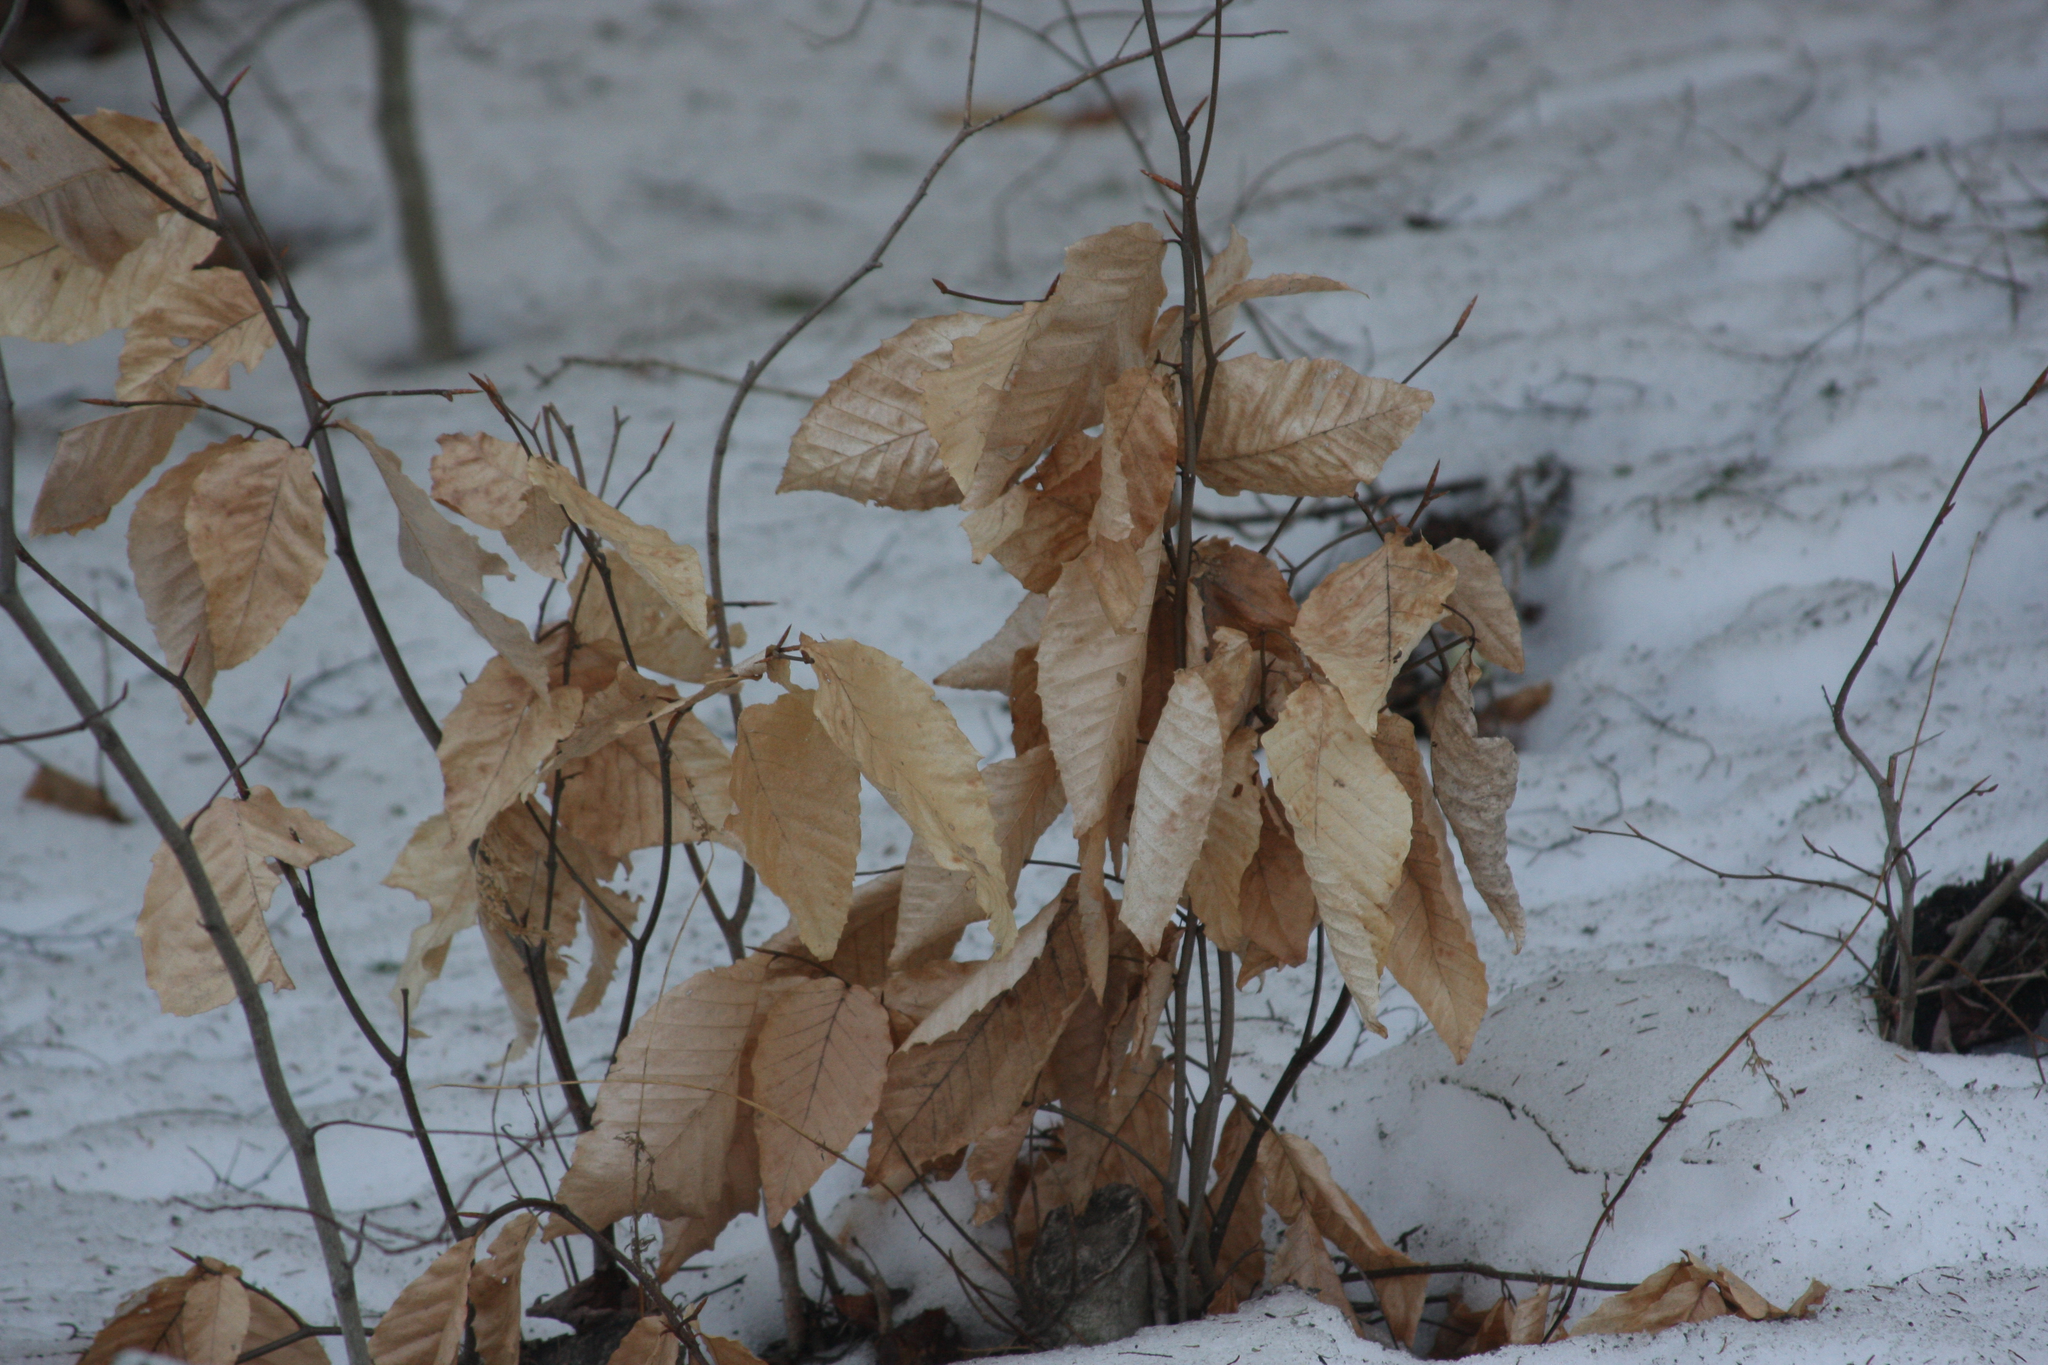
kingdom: Plantae
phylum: Tracheophyta
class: Magnoliopsida
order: Fagales
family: Fagaceae
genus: Fagus
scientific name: Fagus grandifolia
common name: American beech
